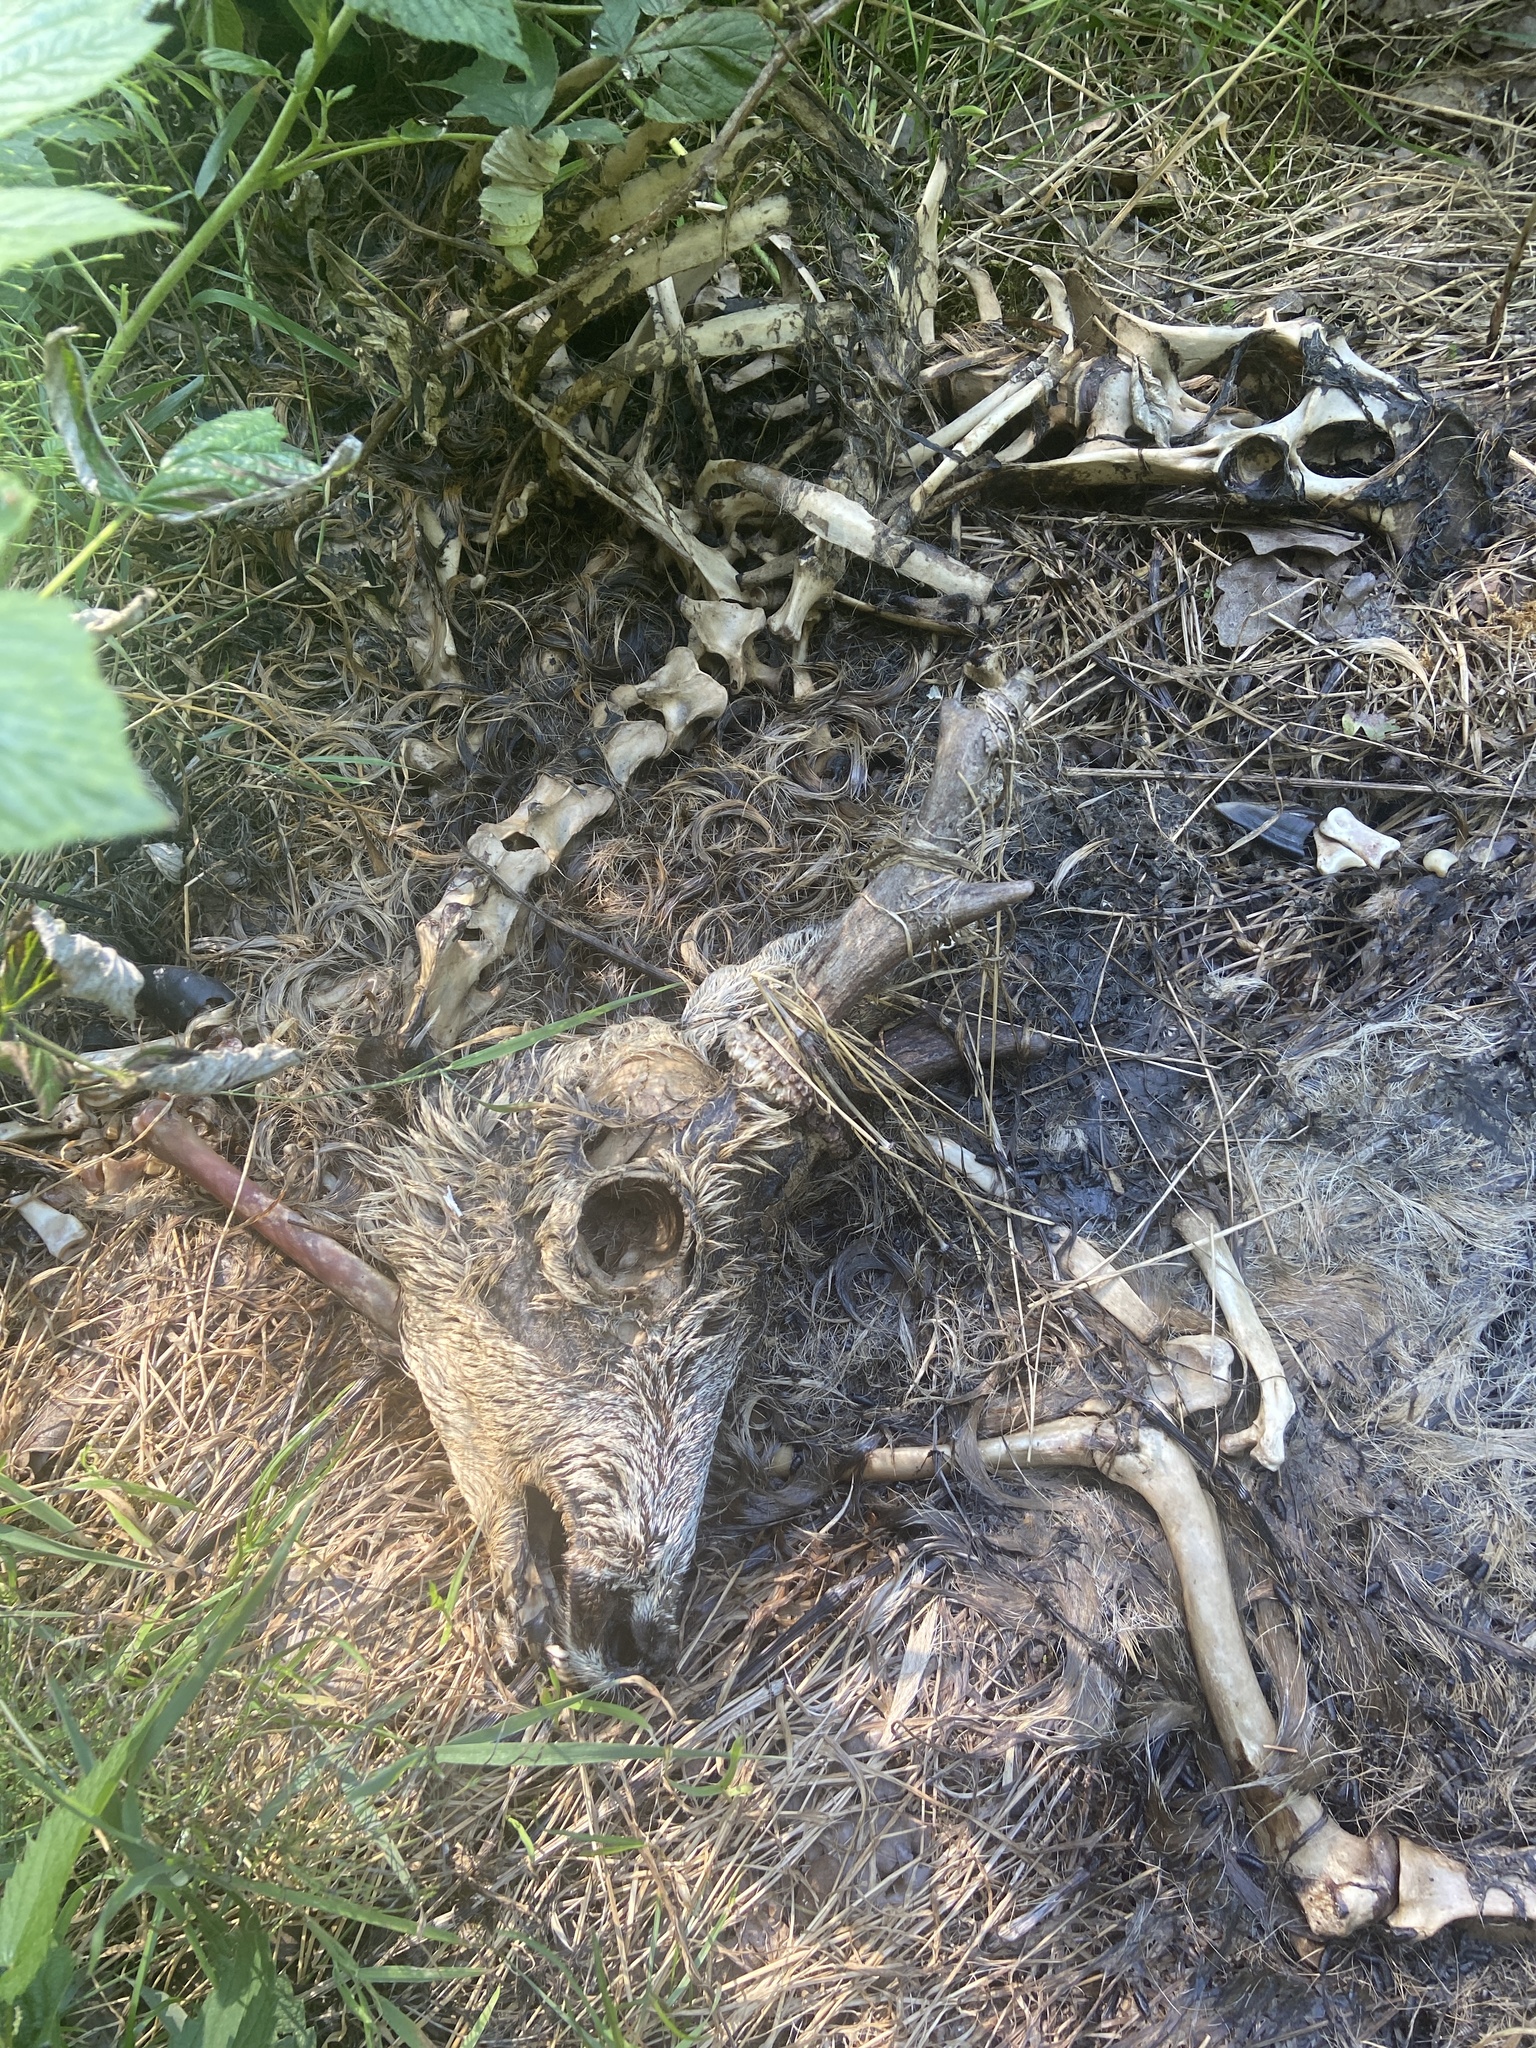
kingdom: Animalia
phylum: Chordata
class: Mammalia
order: Artiodactyla
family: Cervidae
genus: Capreolus
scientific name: Capreolus capreolus
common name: Western roe deer
